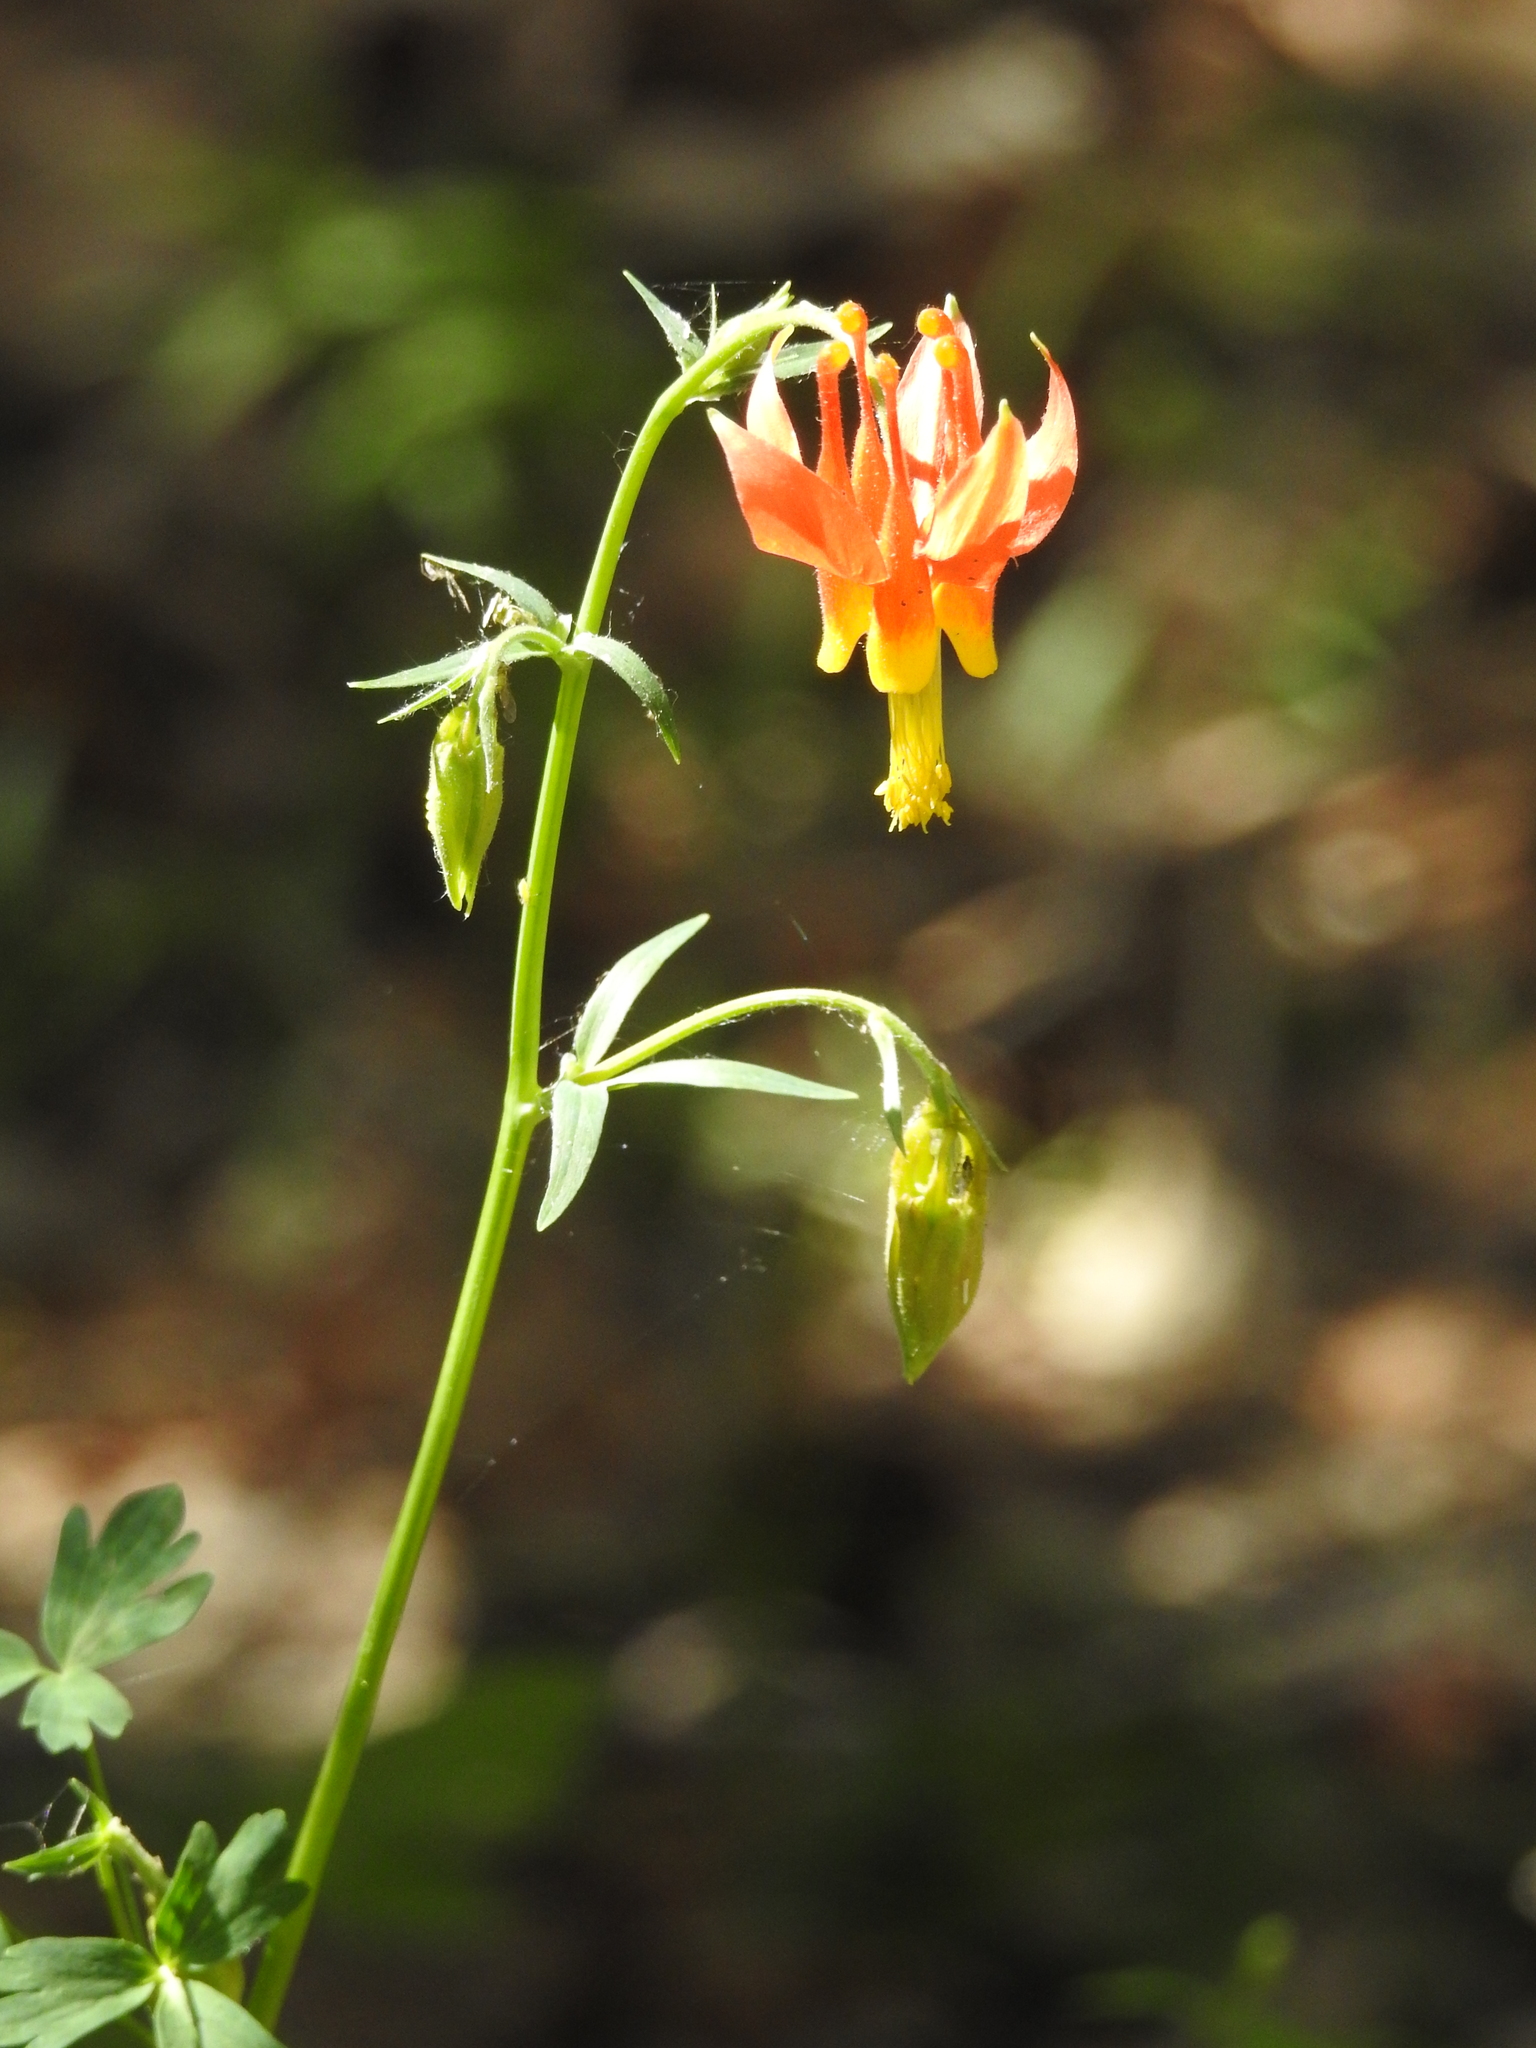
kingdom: Plantae
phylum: Tracheophyta
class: Magnoliopsida
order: Ranunculales
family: Ranunculaceae
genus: Aquilegia
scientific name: Aquilegia formosa
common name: Sitka columbine
